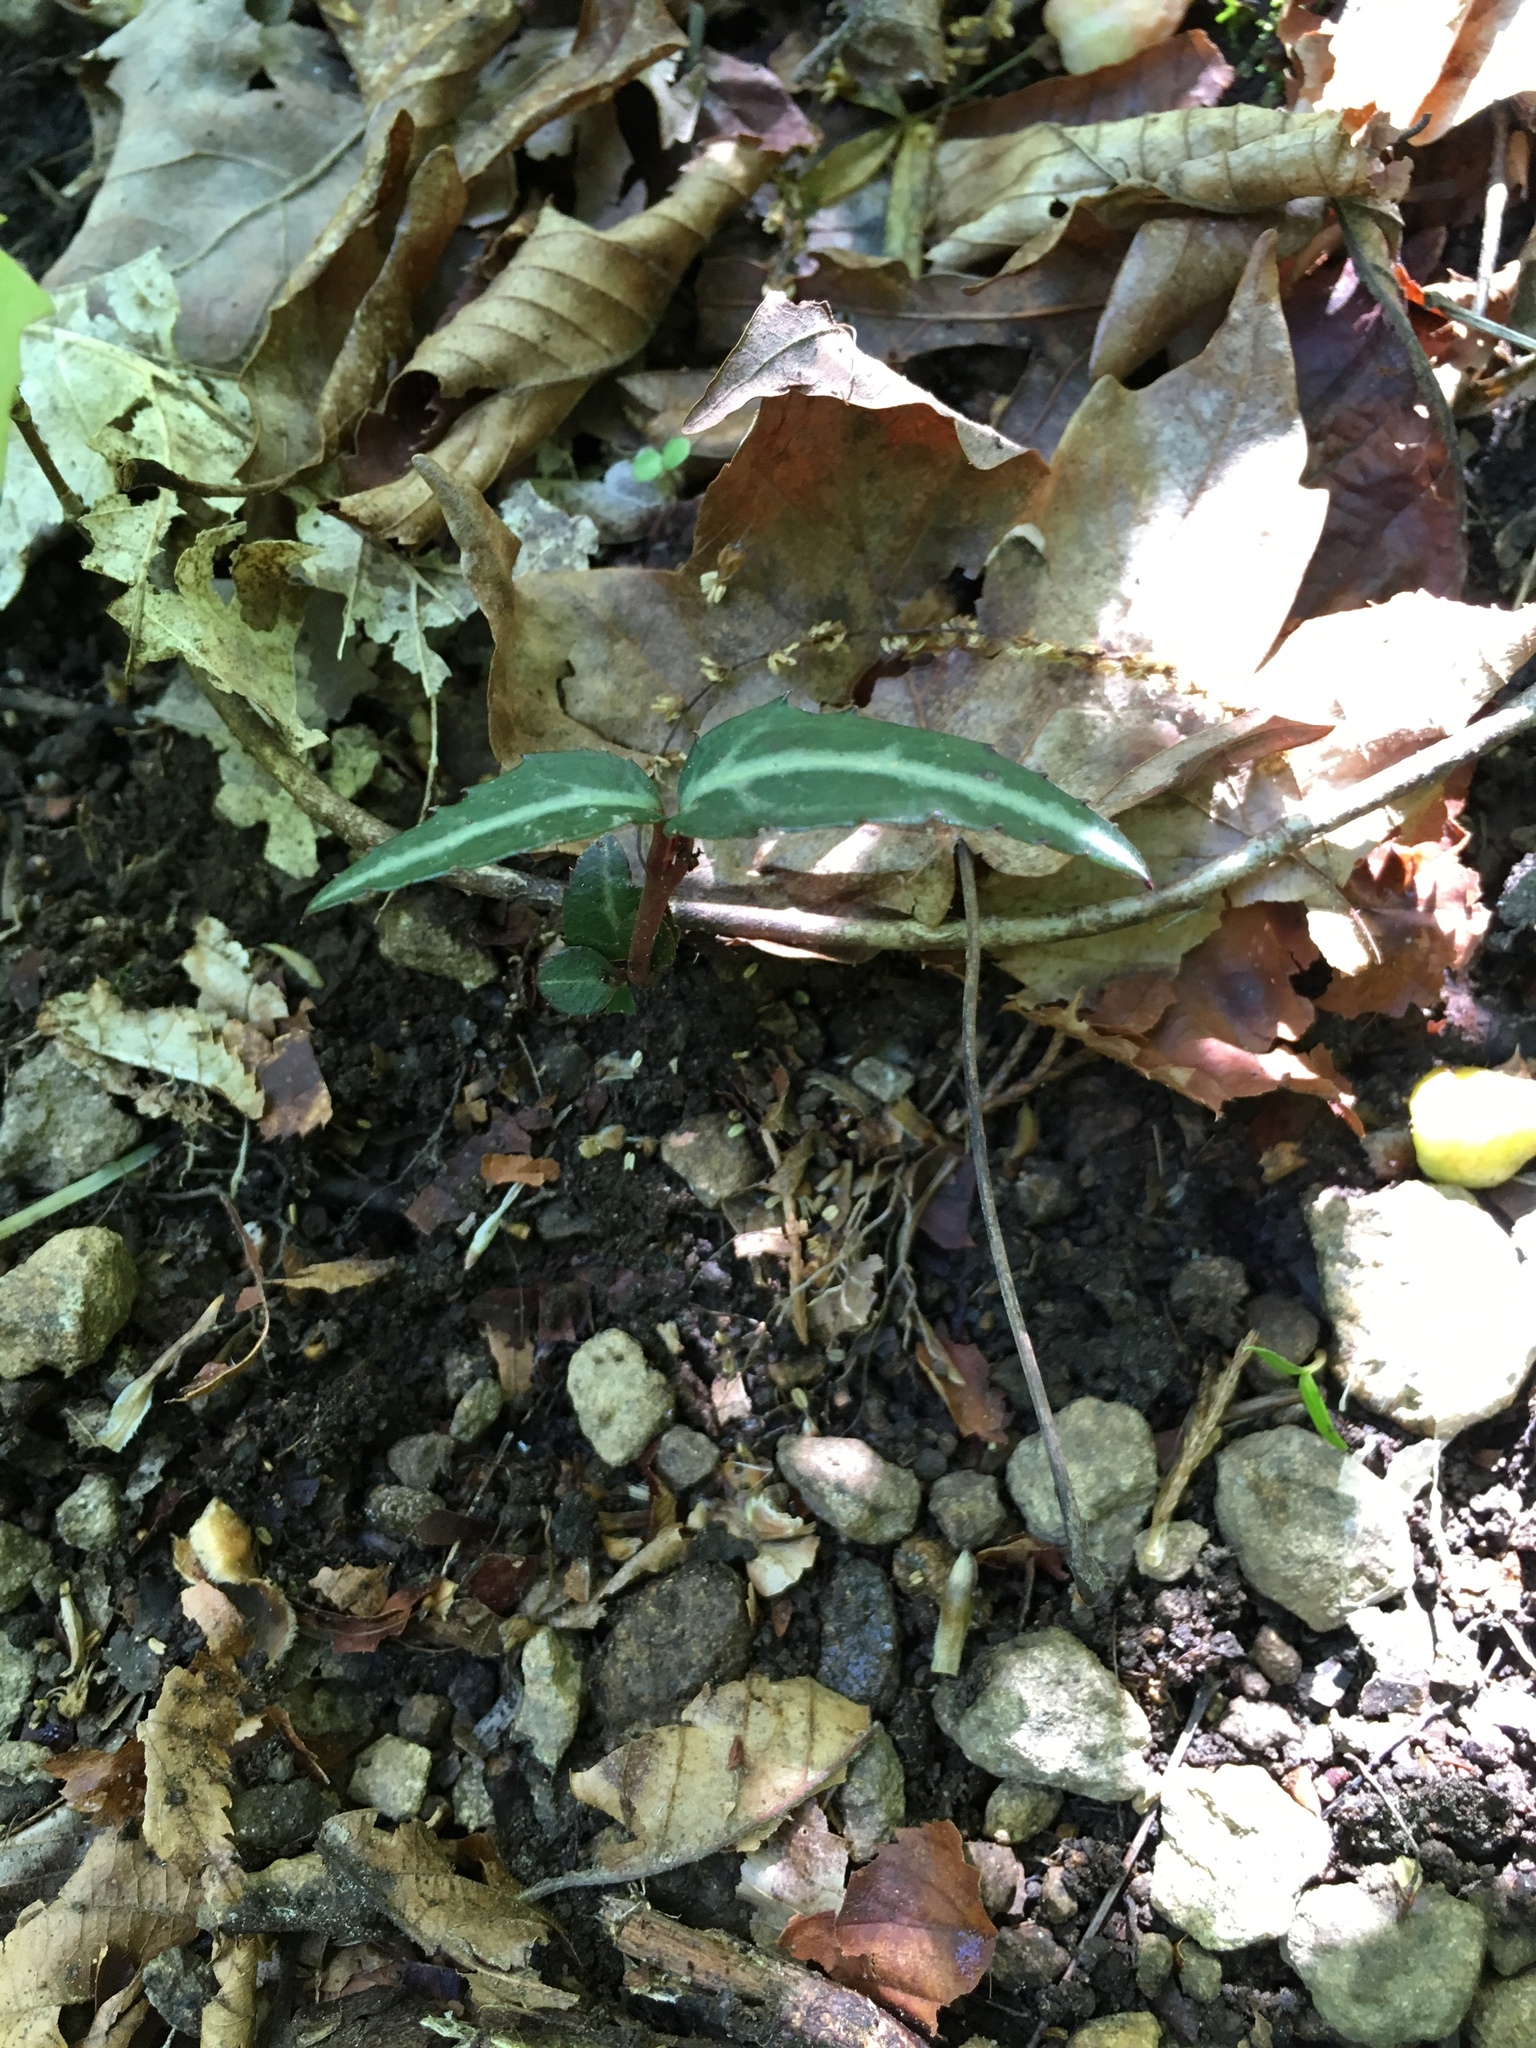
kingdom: Plantae
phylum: Tracheophyta
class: Magnoliopsida
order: Ericales
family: Ericaceae
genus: Chimaphila
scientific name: Chimaphila maculata
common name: Spotted pipsissewa
